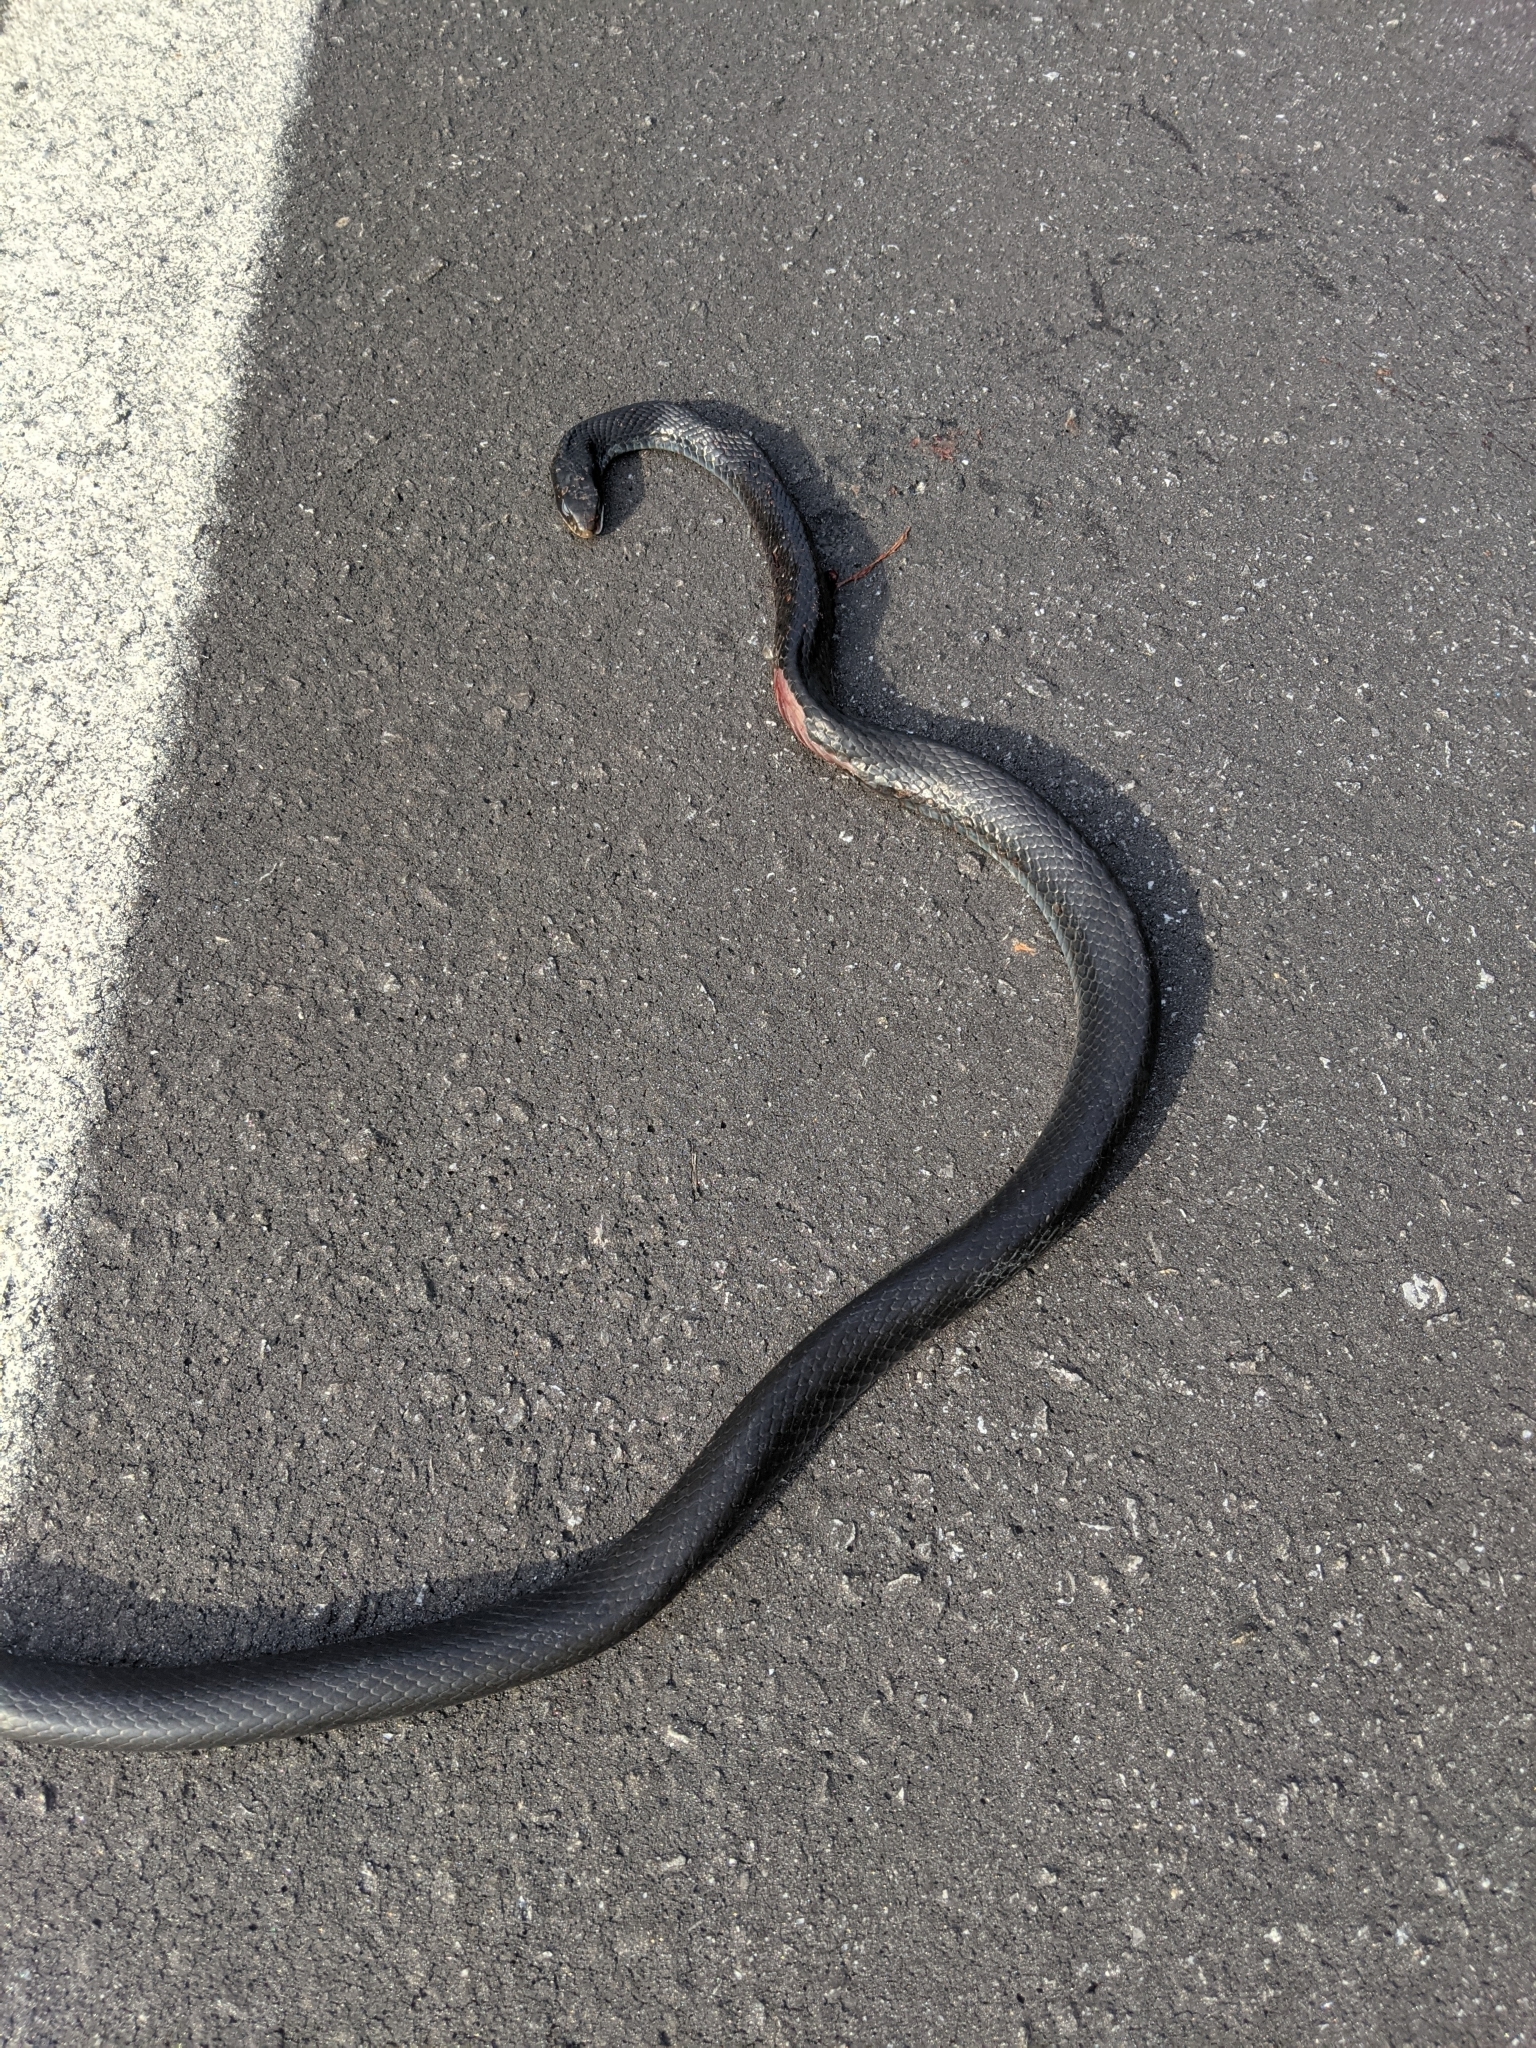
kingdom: Animalia
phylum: Chordata
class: Squamata
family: Colubridae
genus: Coluber
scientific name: Coluber constrictor
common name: Eastern racer
